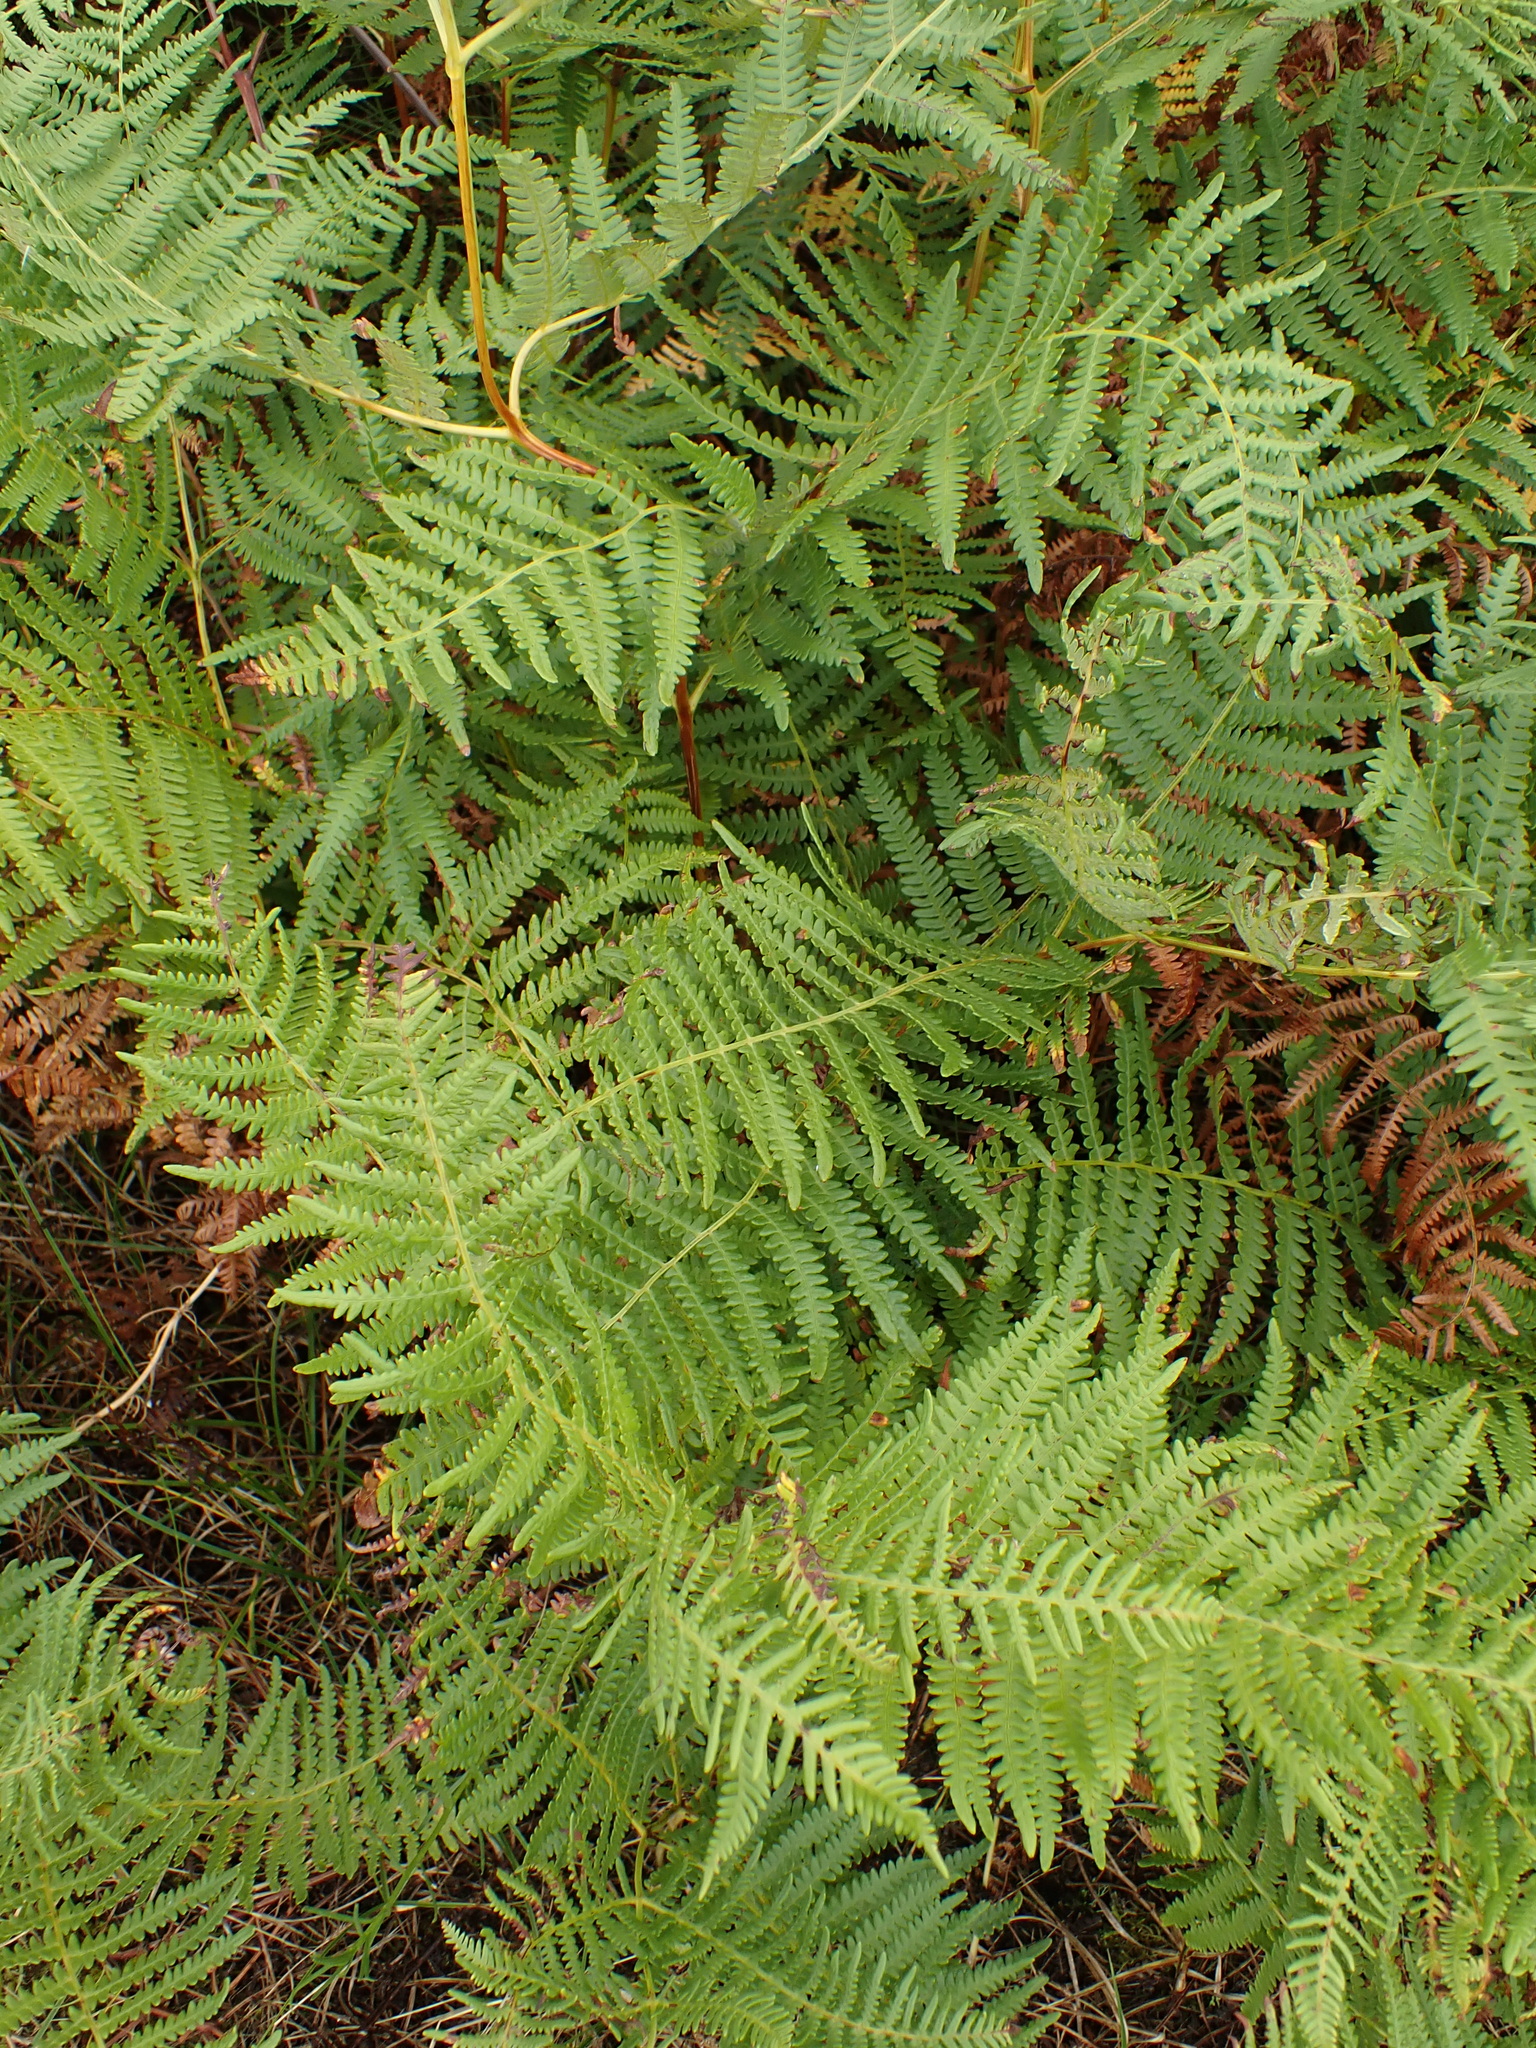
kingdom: Plantae
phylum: Tracheophyta
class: Polypodiopsida
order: Polypodiales
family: Dennstaedtiaceae
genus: Pteridium
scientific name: Pteridium aquilinum
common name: Bracken
